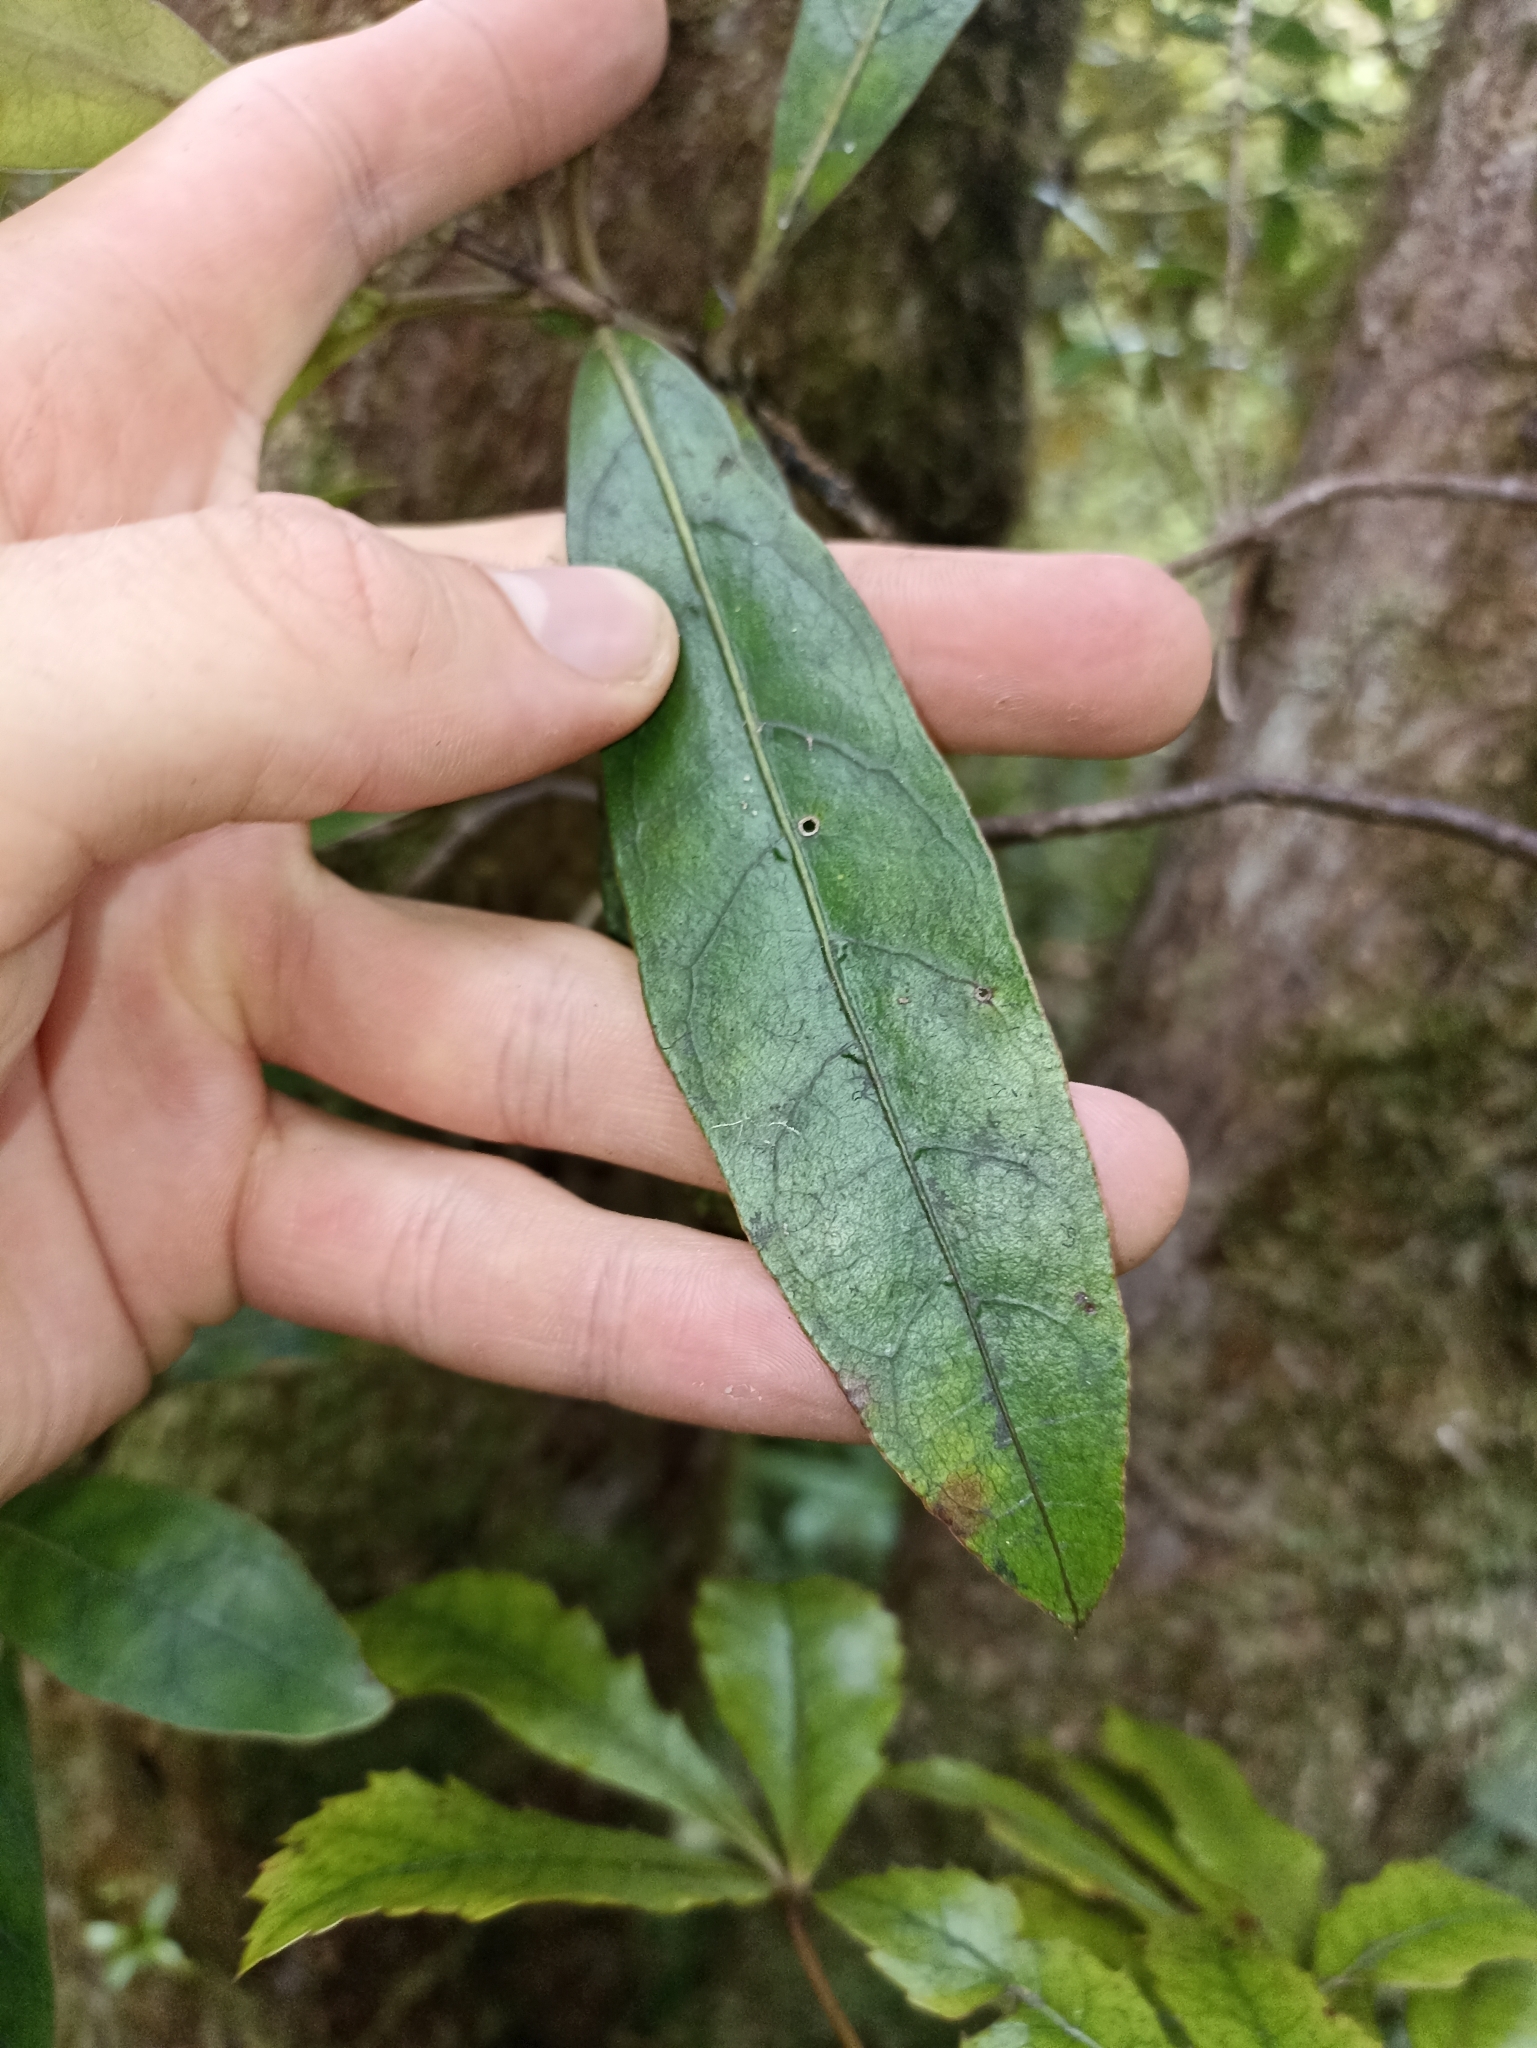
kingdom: Plantae
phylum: Tracheophyta
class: Magnoliopsida
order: Gentianales
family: Rubiaceae
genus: Coprosma
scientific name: Coprosma dodonaeifolia
